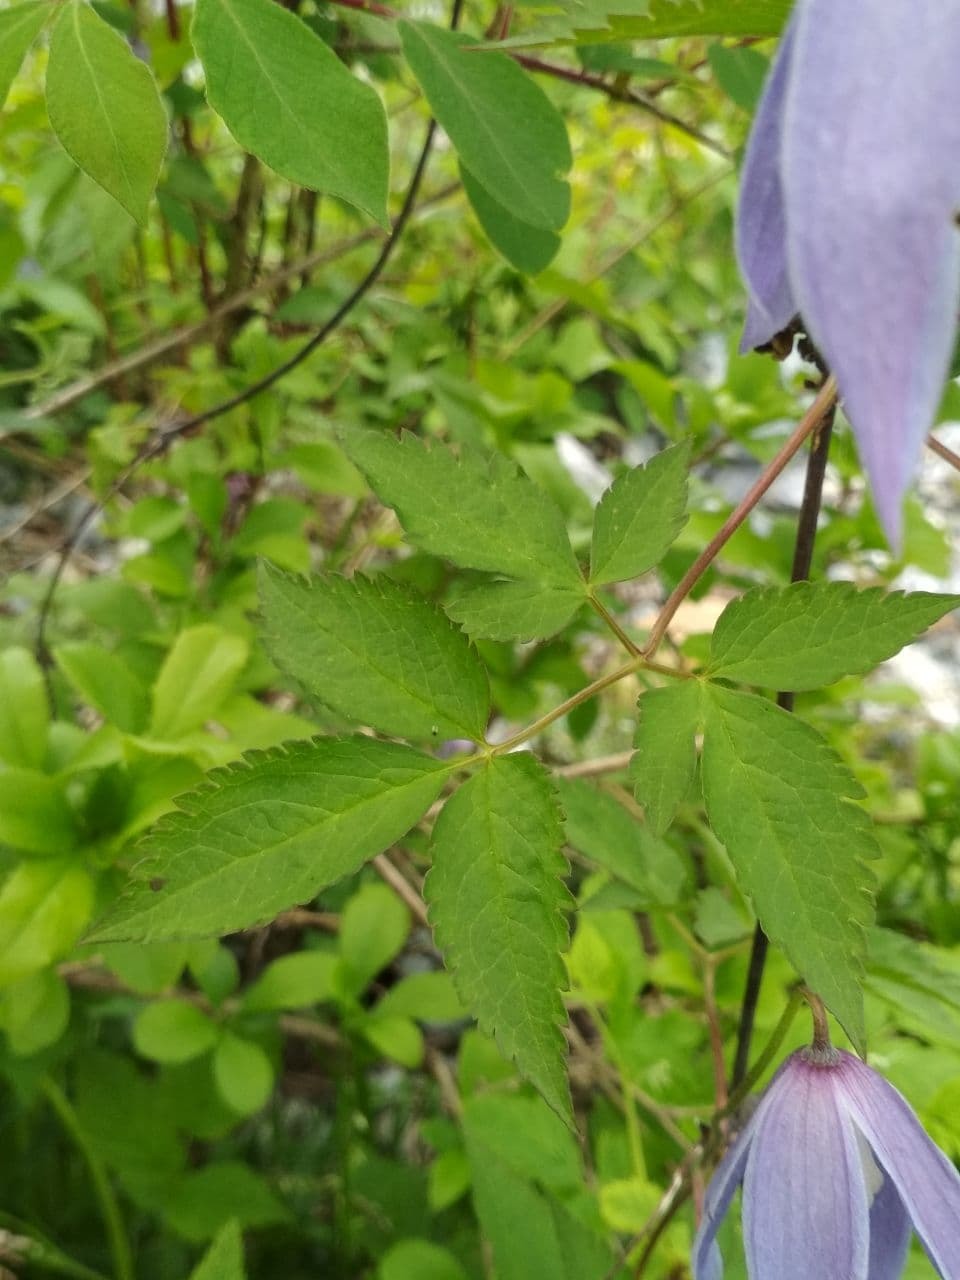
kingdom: Plantae
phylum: Tracheophyta
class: Magnoliopsida
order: Ranunculales
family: Ranunculaceae
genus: Clematis
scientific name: Clematis alpina
